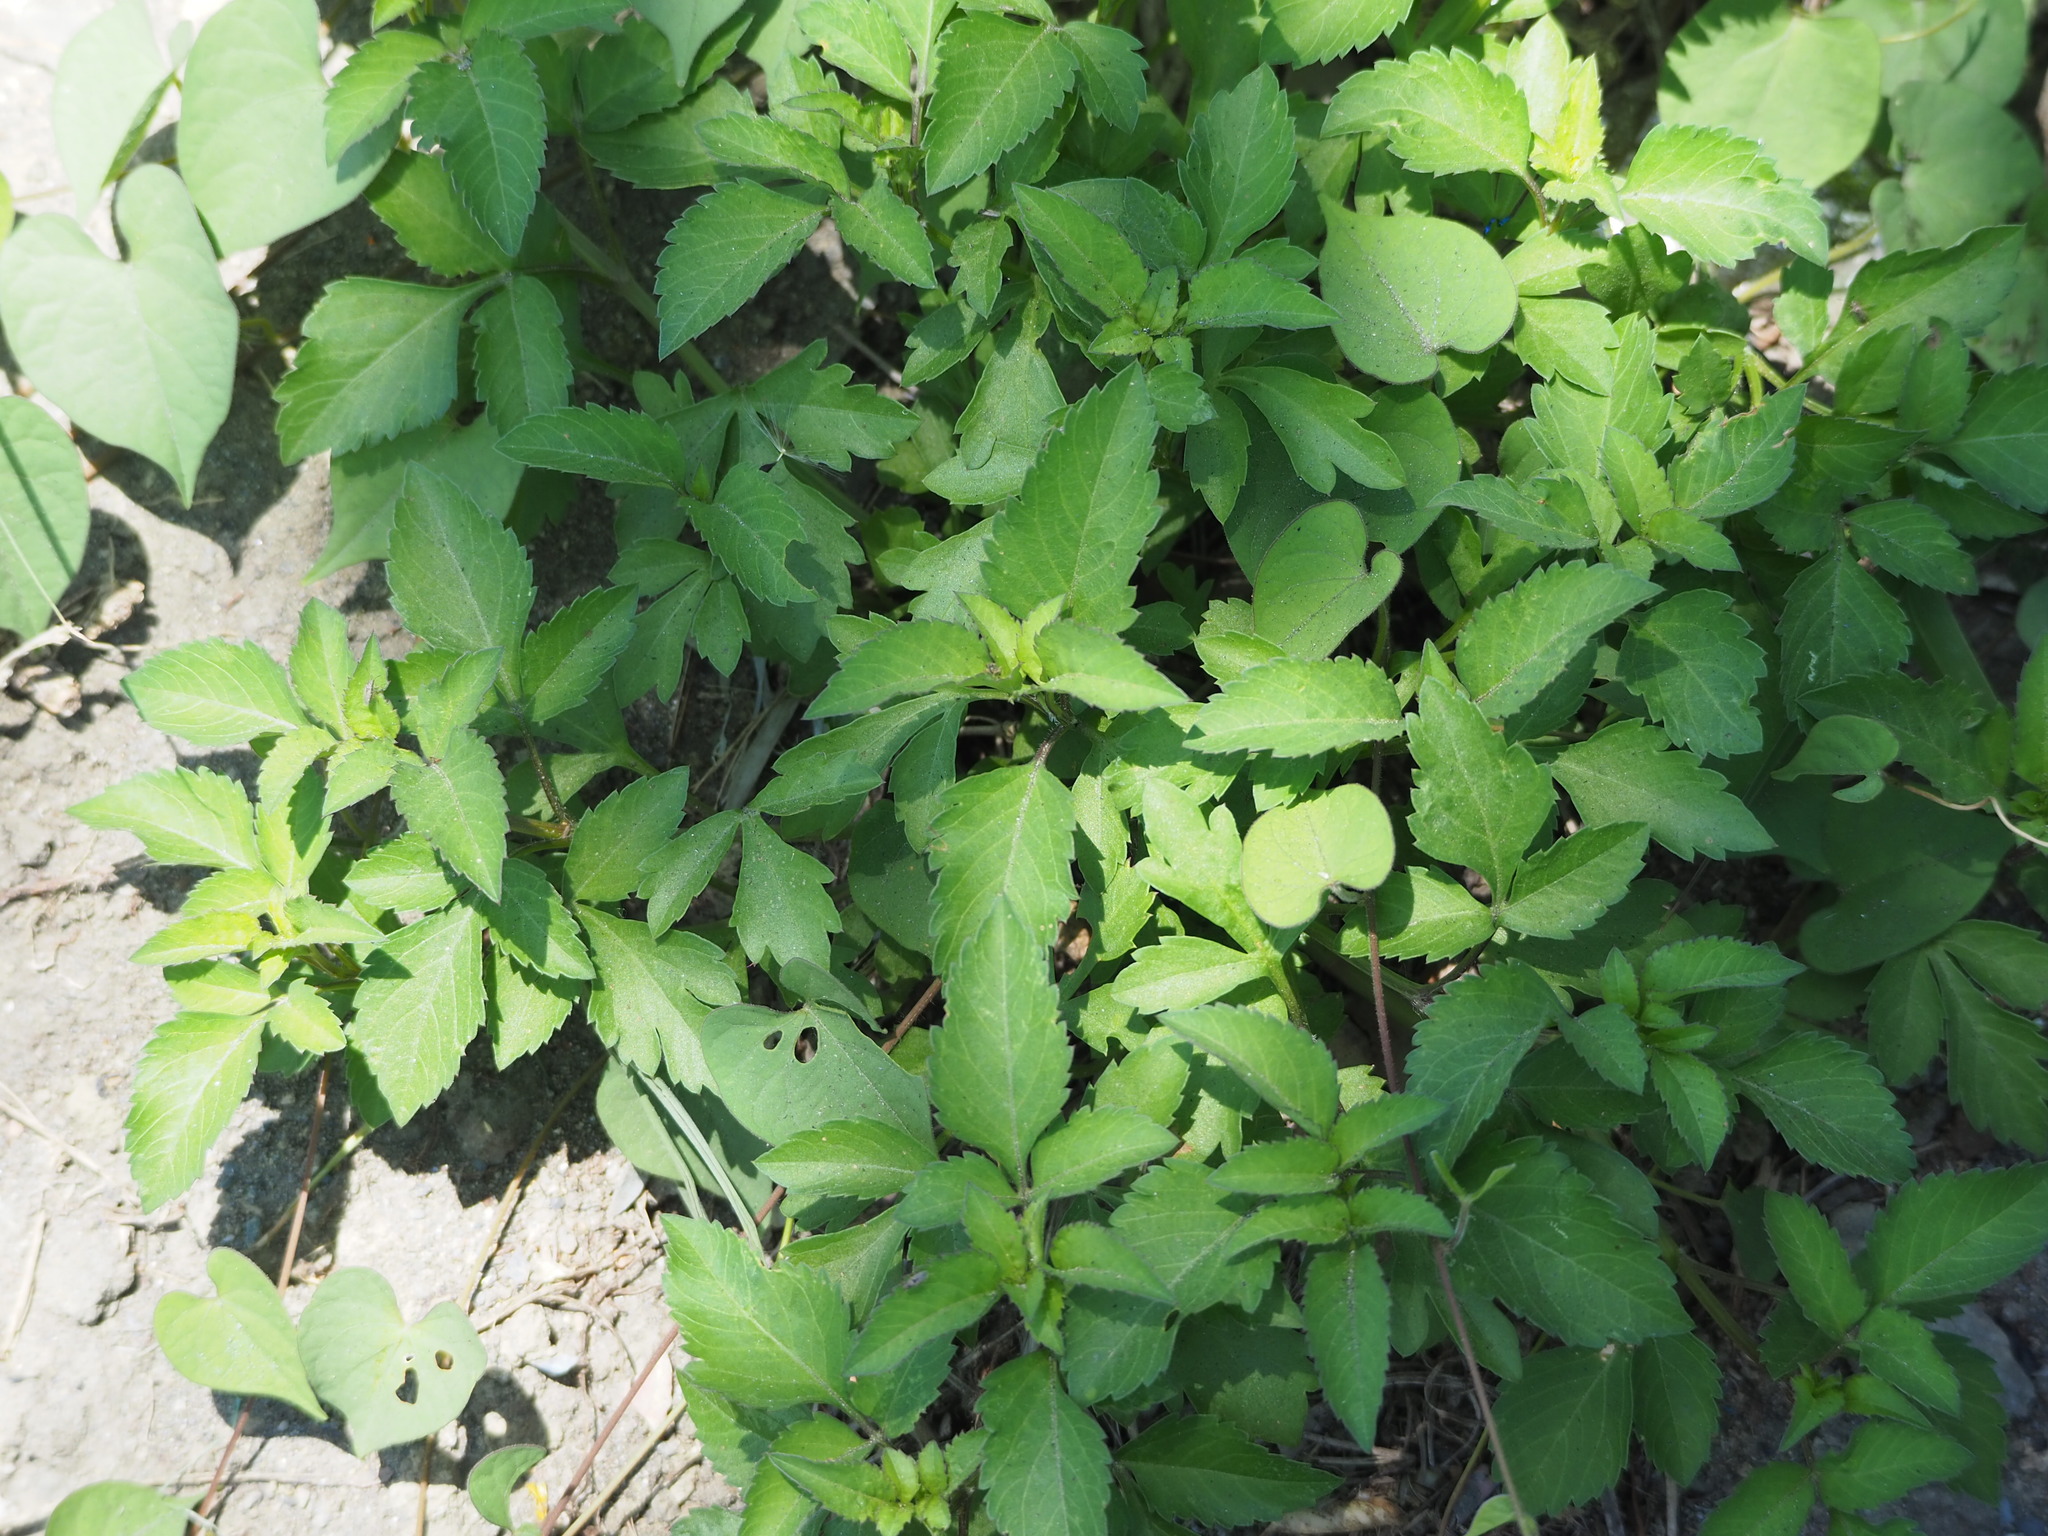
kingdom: Plantae
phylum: Tracheophyta
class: Magnoliopsida
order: Asterales
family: Asteraceae
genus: Bidens
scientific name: Bidens alba
